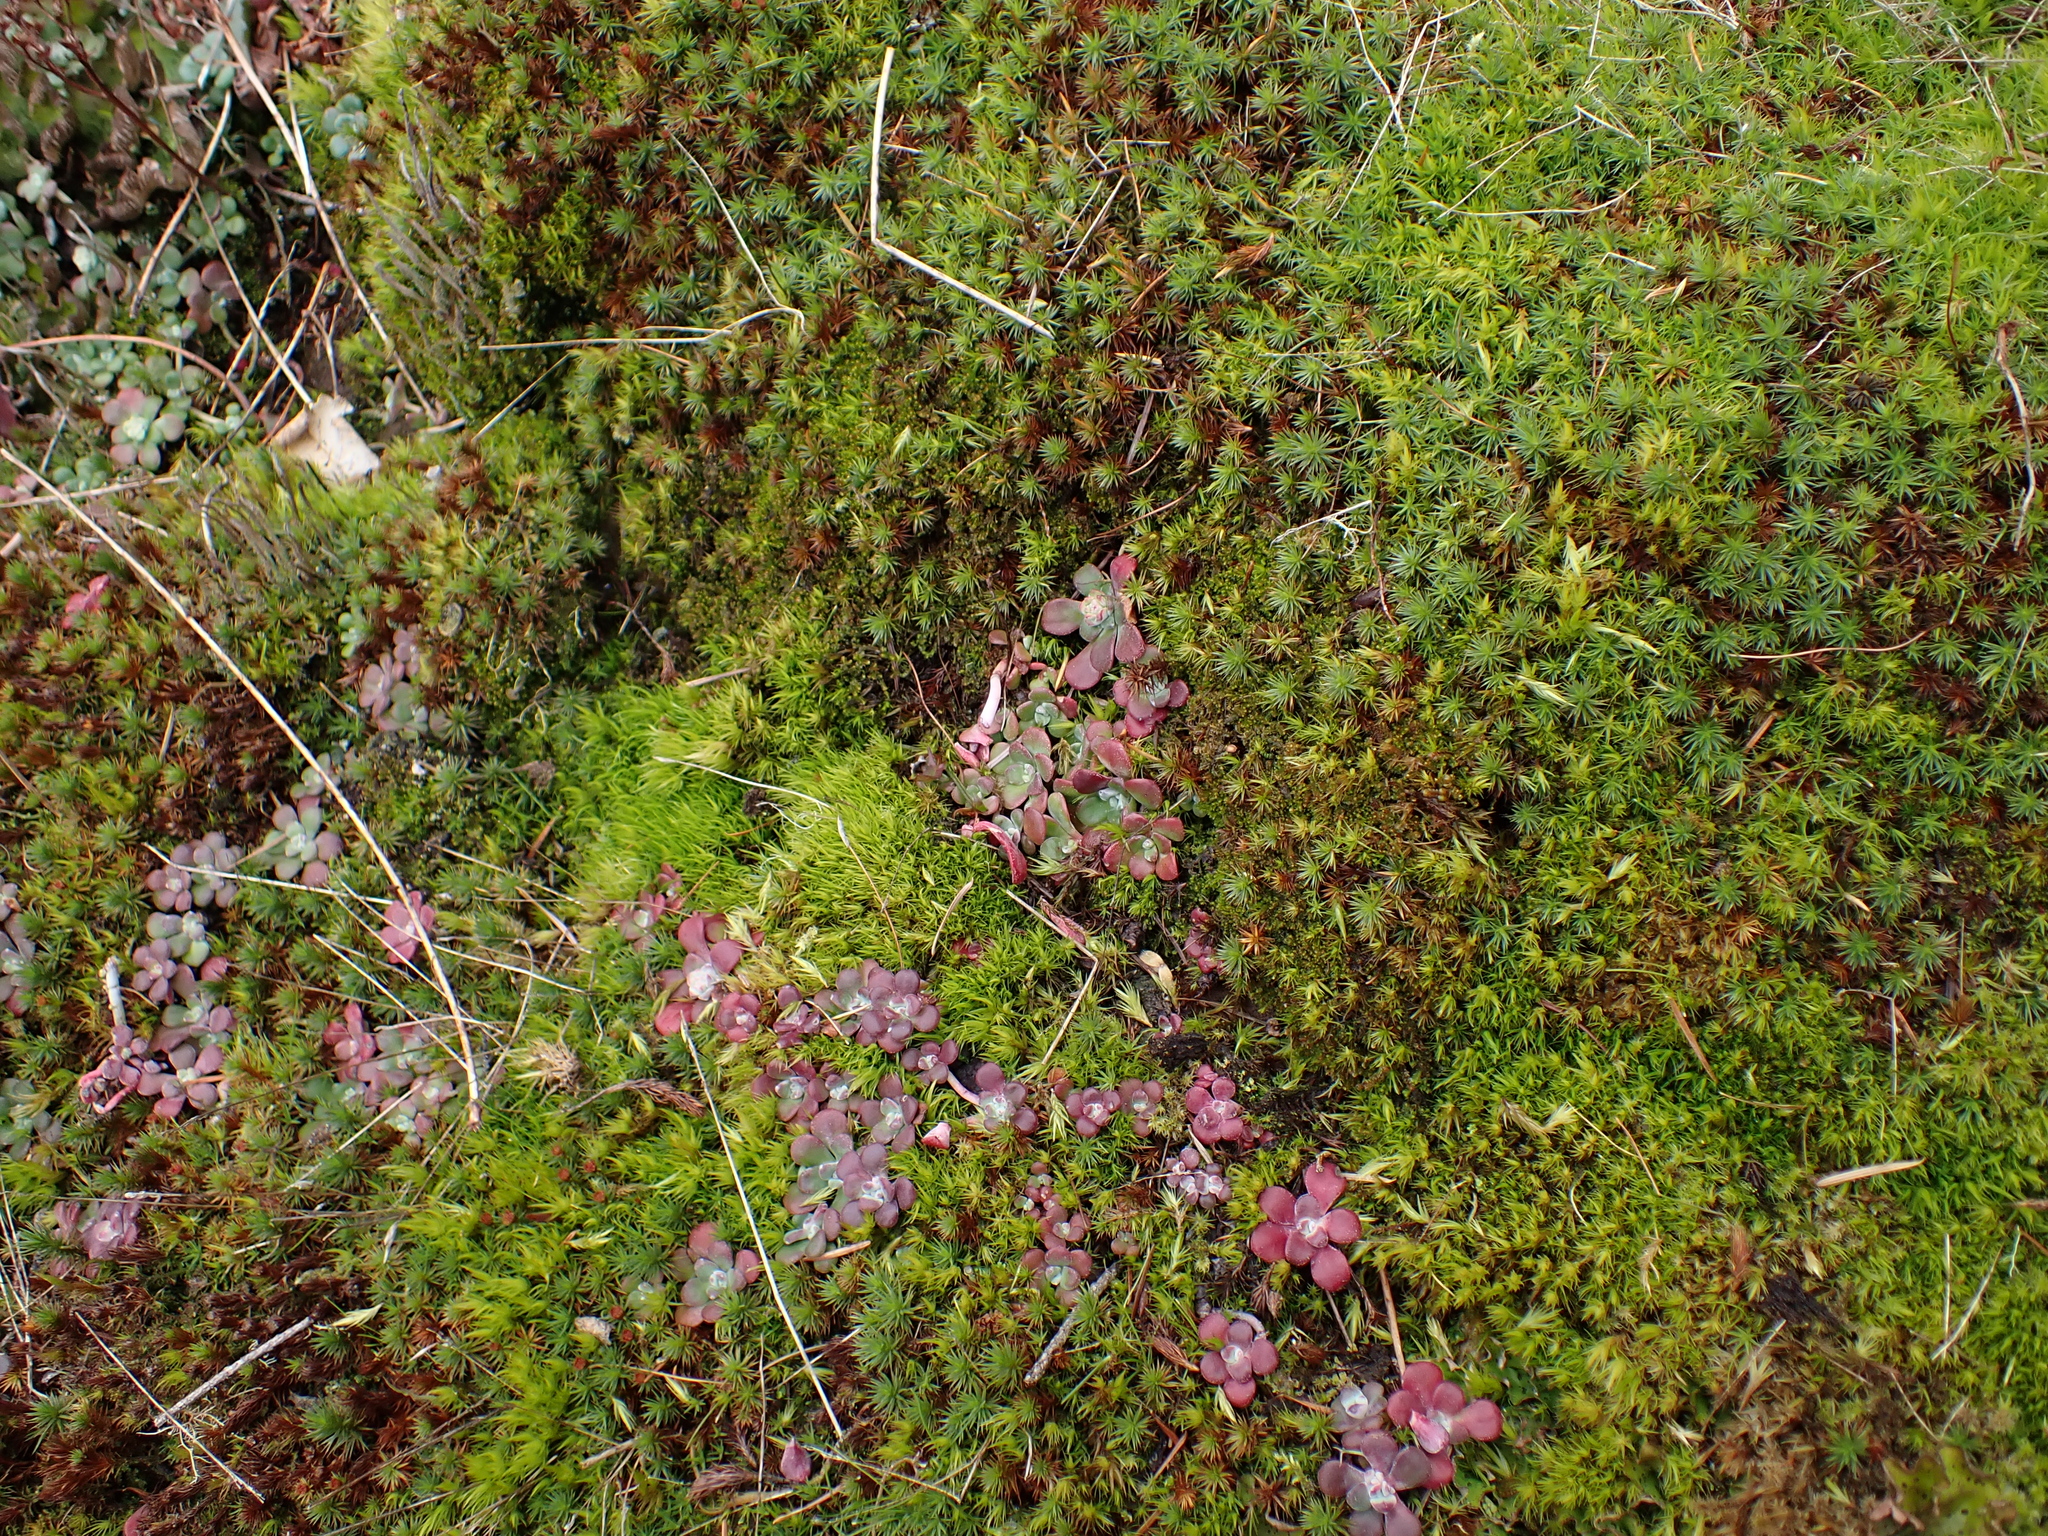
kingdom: Plantae
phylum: Tracheophyta
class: Magnoliopsida
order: Saxifragales
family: Crassulaceae
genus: Sedum
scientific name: Sedum spathulifolium
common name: Colorado stonecrop
